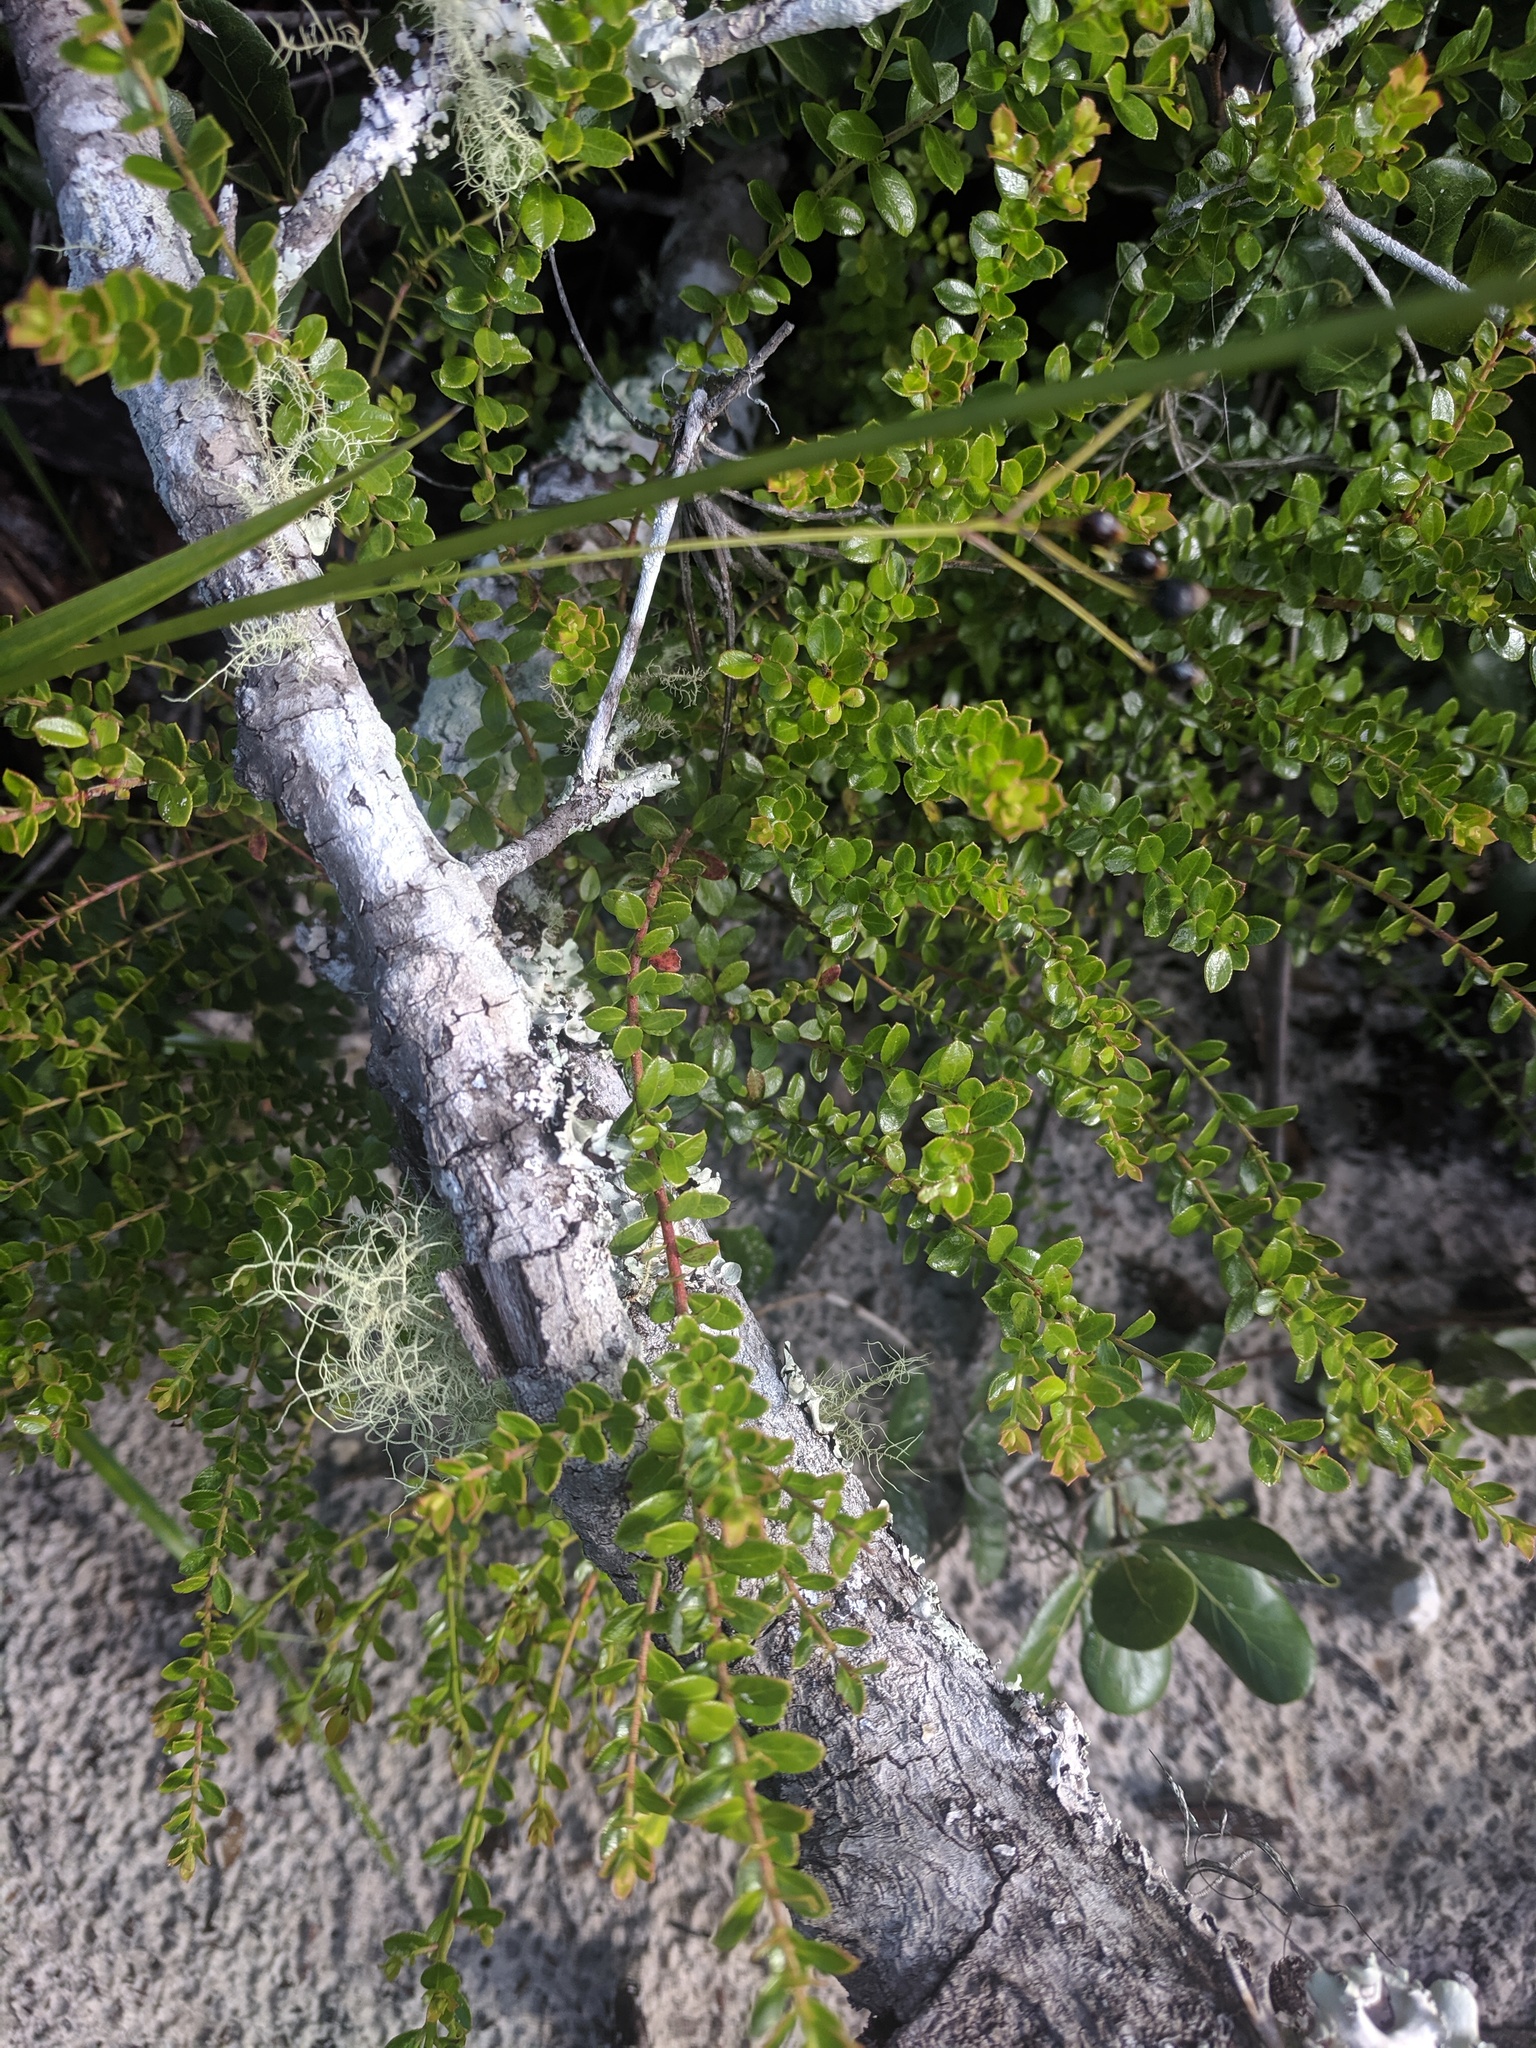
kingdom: Plantae
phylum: Tracheophyta
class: Magnoliopsida
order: Ericales
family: Ericaceae
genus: Vaccinium
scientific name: Vaccinium myrsinites
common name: Evergreen blueberry
